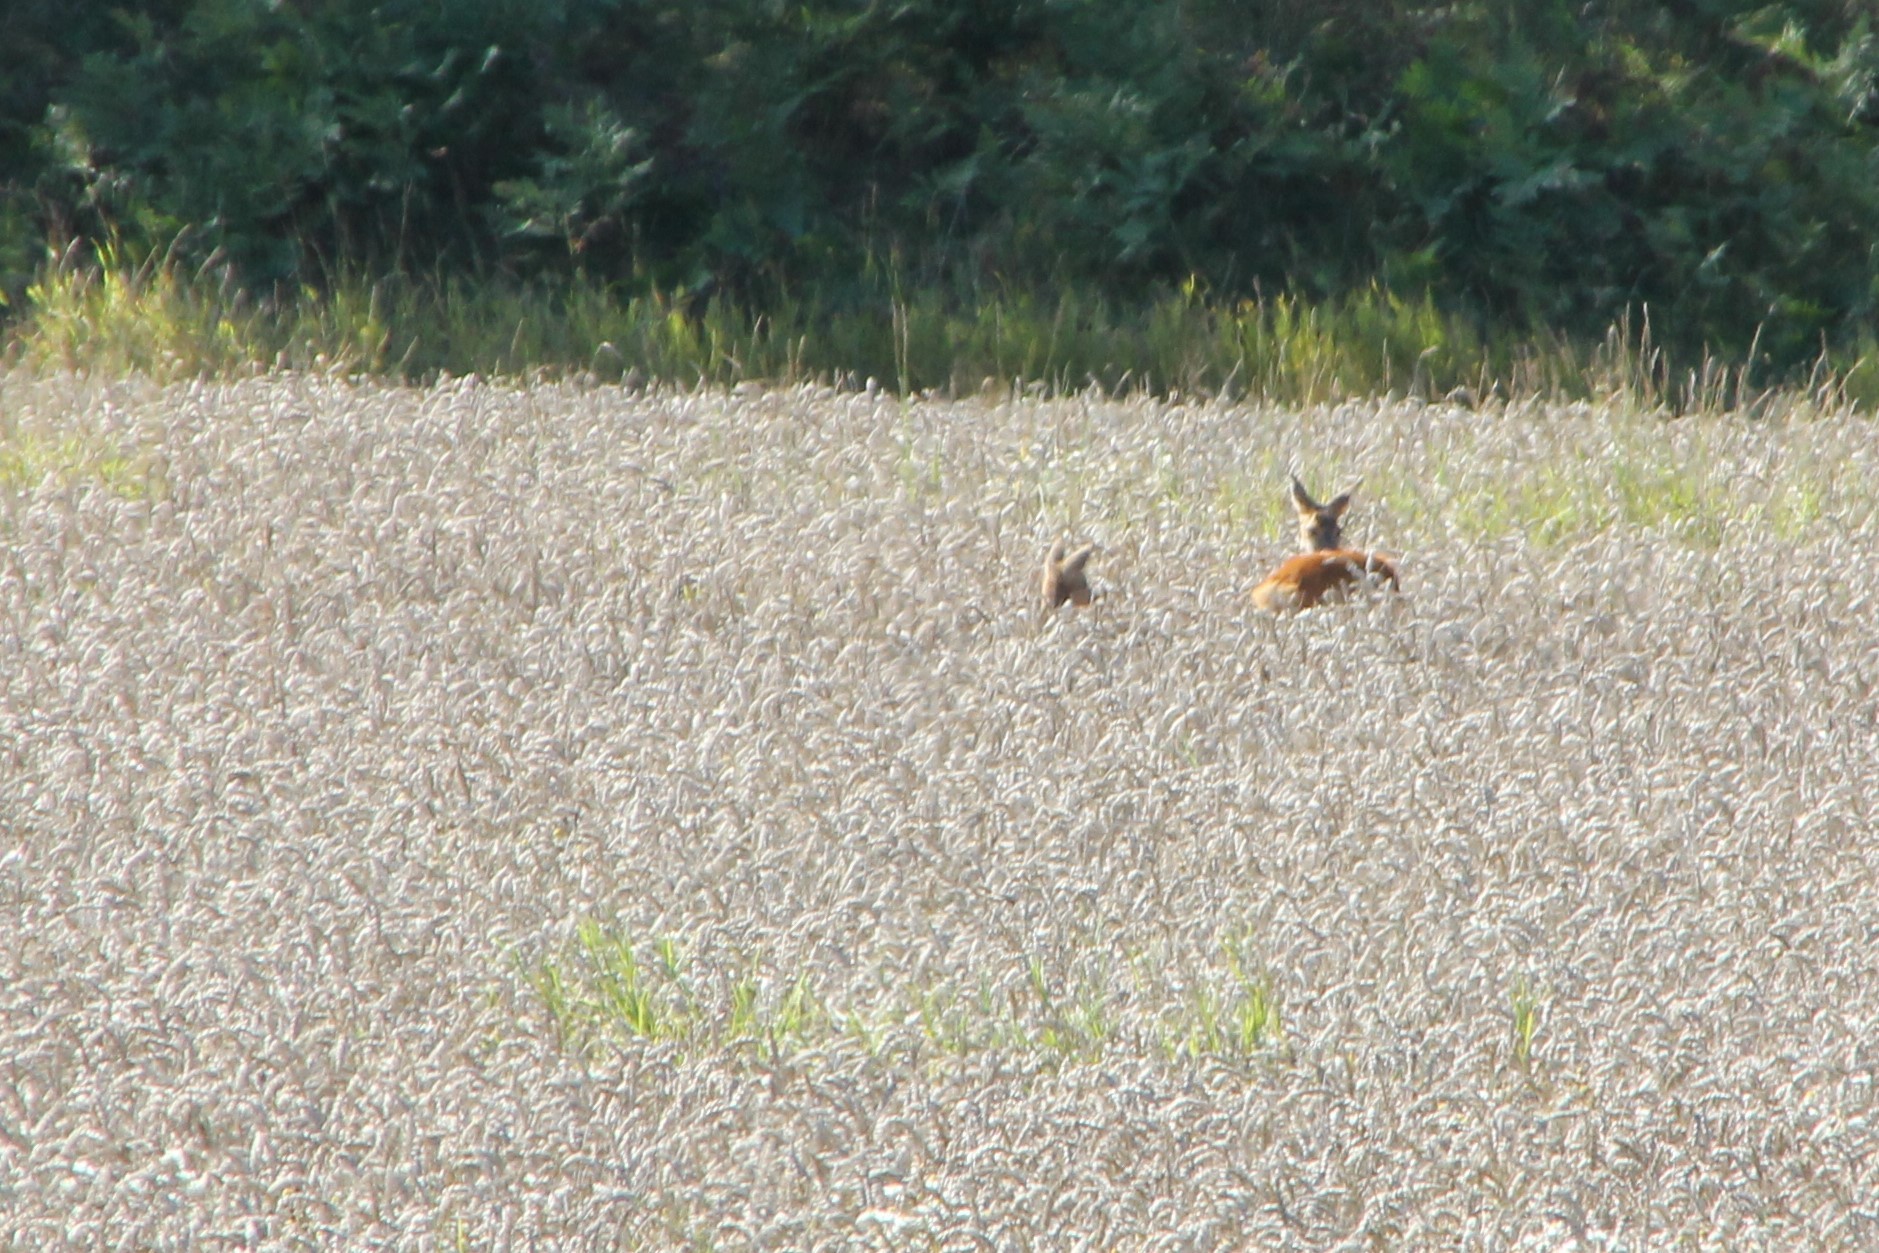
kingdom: Animalia
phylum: Chordata
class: Mammalia
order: Artiodactyla
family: Cervidae
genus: Capreolus
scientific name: Capreolus capreolus
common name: Western roe deer
